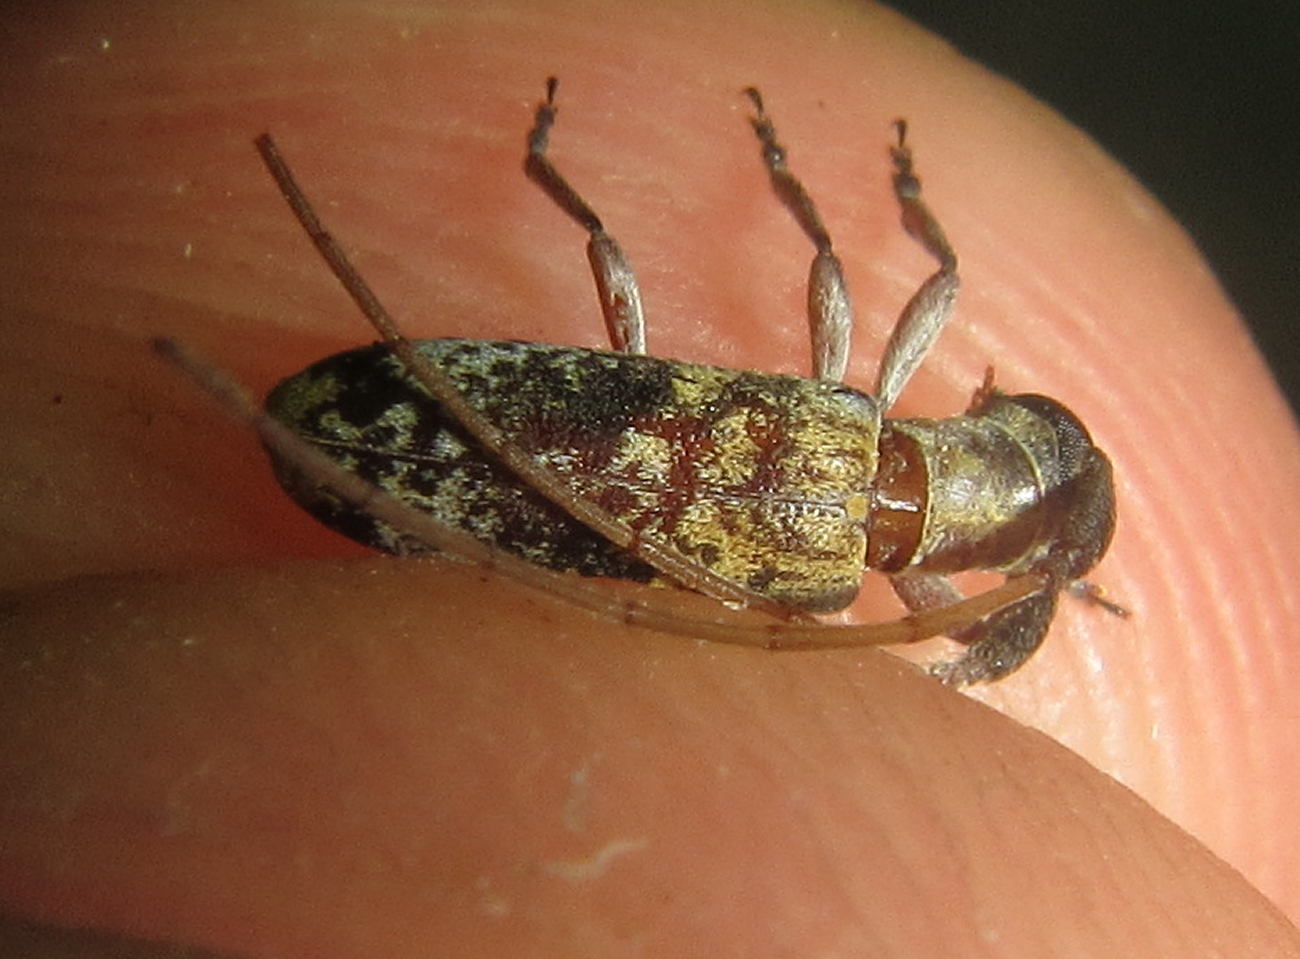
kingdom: Animalia
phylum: Arthropoda
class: Insecta
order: Coleoptera
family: Cerambycidae
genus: Eunidia
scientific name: Eunidia subtergrisea
